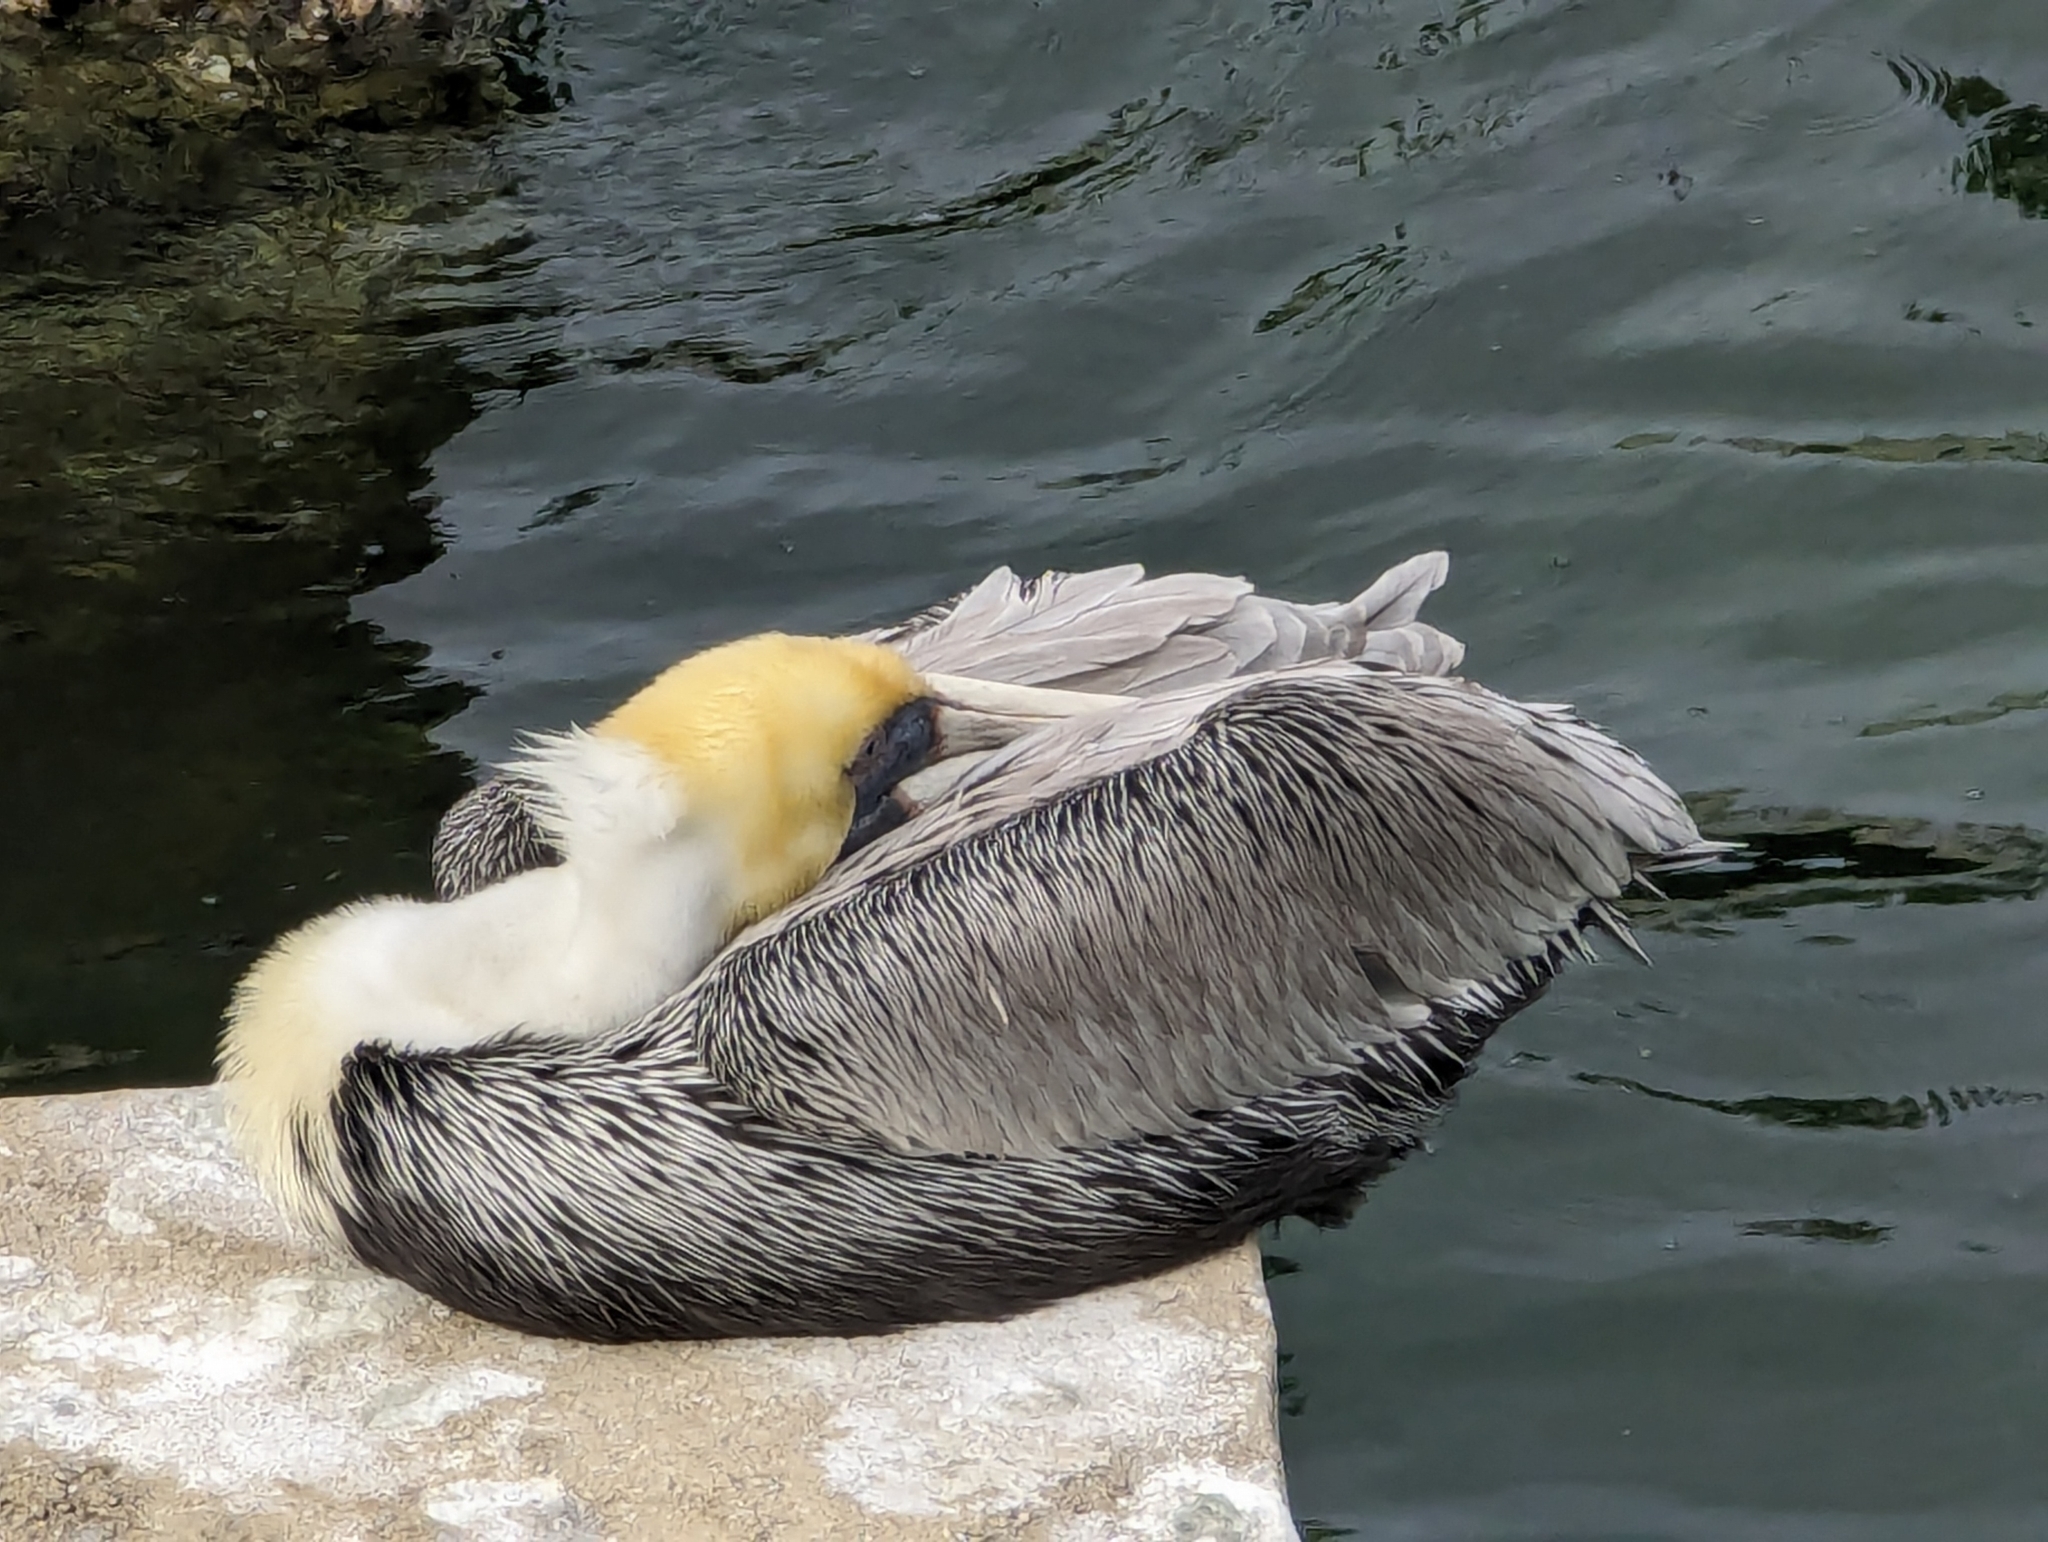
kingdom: Animalia
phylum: Chordata
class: Aves
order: Pelecaniformes
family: Pelecanidae
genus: Pelecanus
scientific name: Pelecanus occidentalis
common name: Brown pelican
